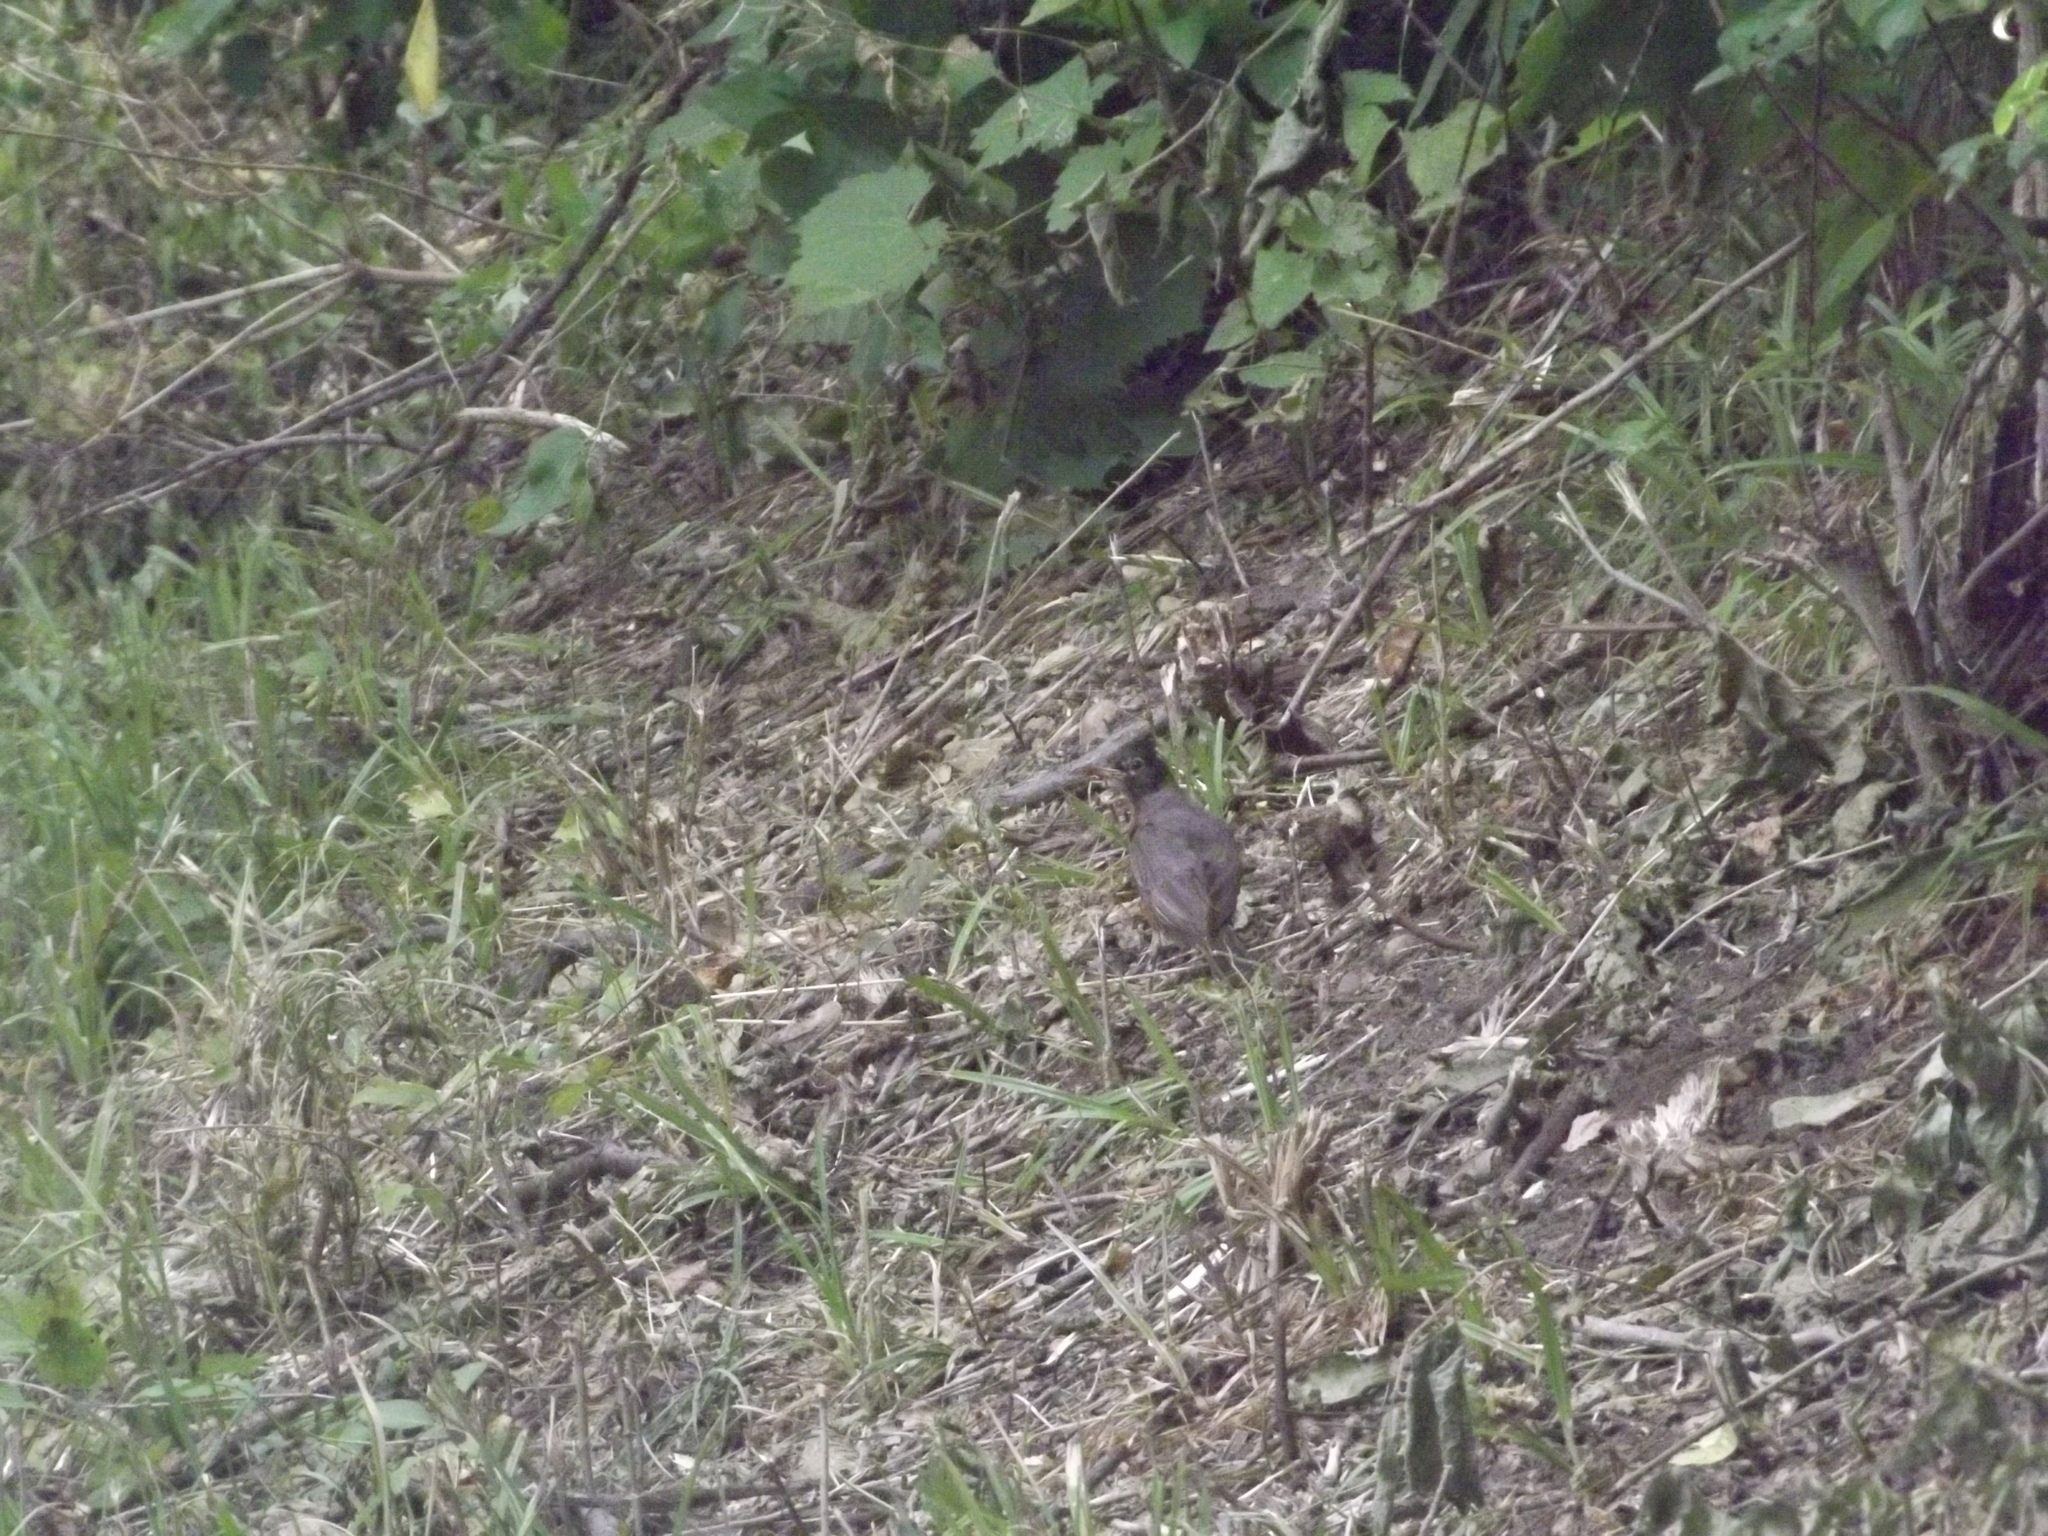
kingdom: Animalia
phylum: Chordata
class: Aves
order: Passeriformes
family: Turdidae
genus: Turdus
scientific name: Turdus migratorius
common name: American robin
